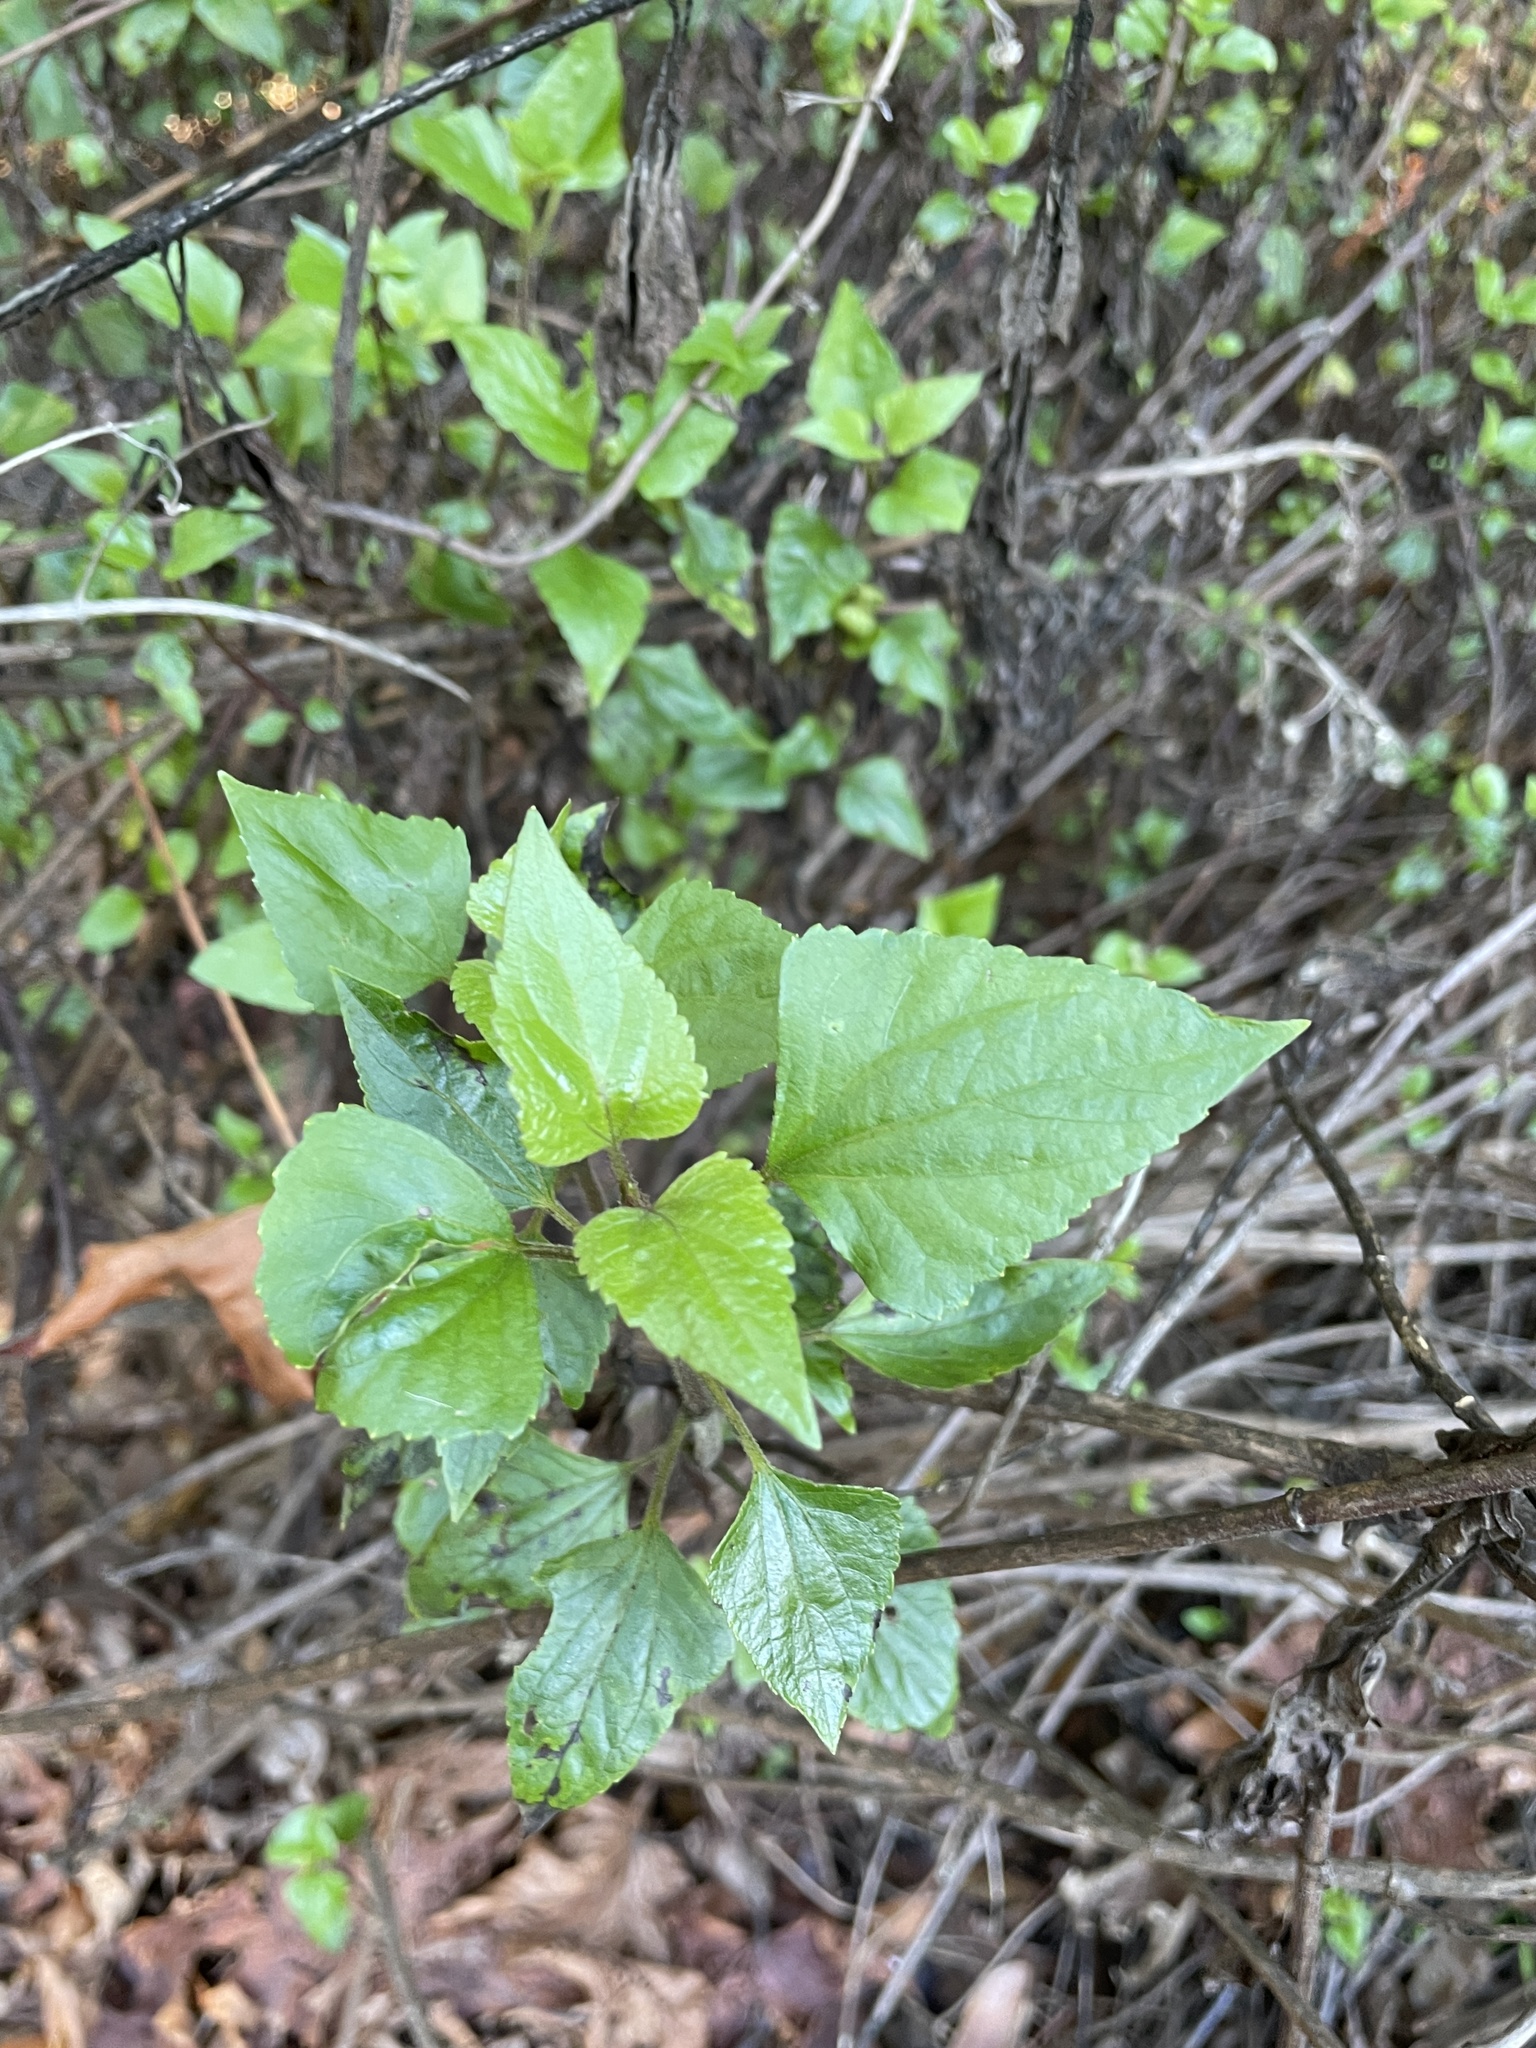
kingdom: Plantae
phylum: Tracheophyta
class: Magnoliopsida
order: Asterales
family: Asteraceae
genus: Ageratina
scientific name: Ageratina adenophora
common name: Sticky snakeroot
